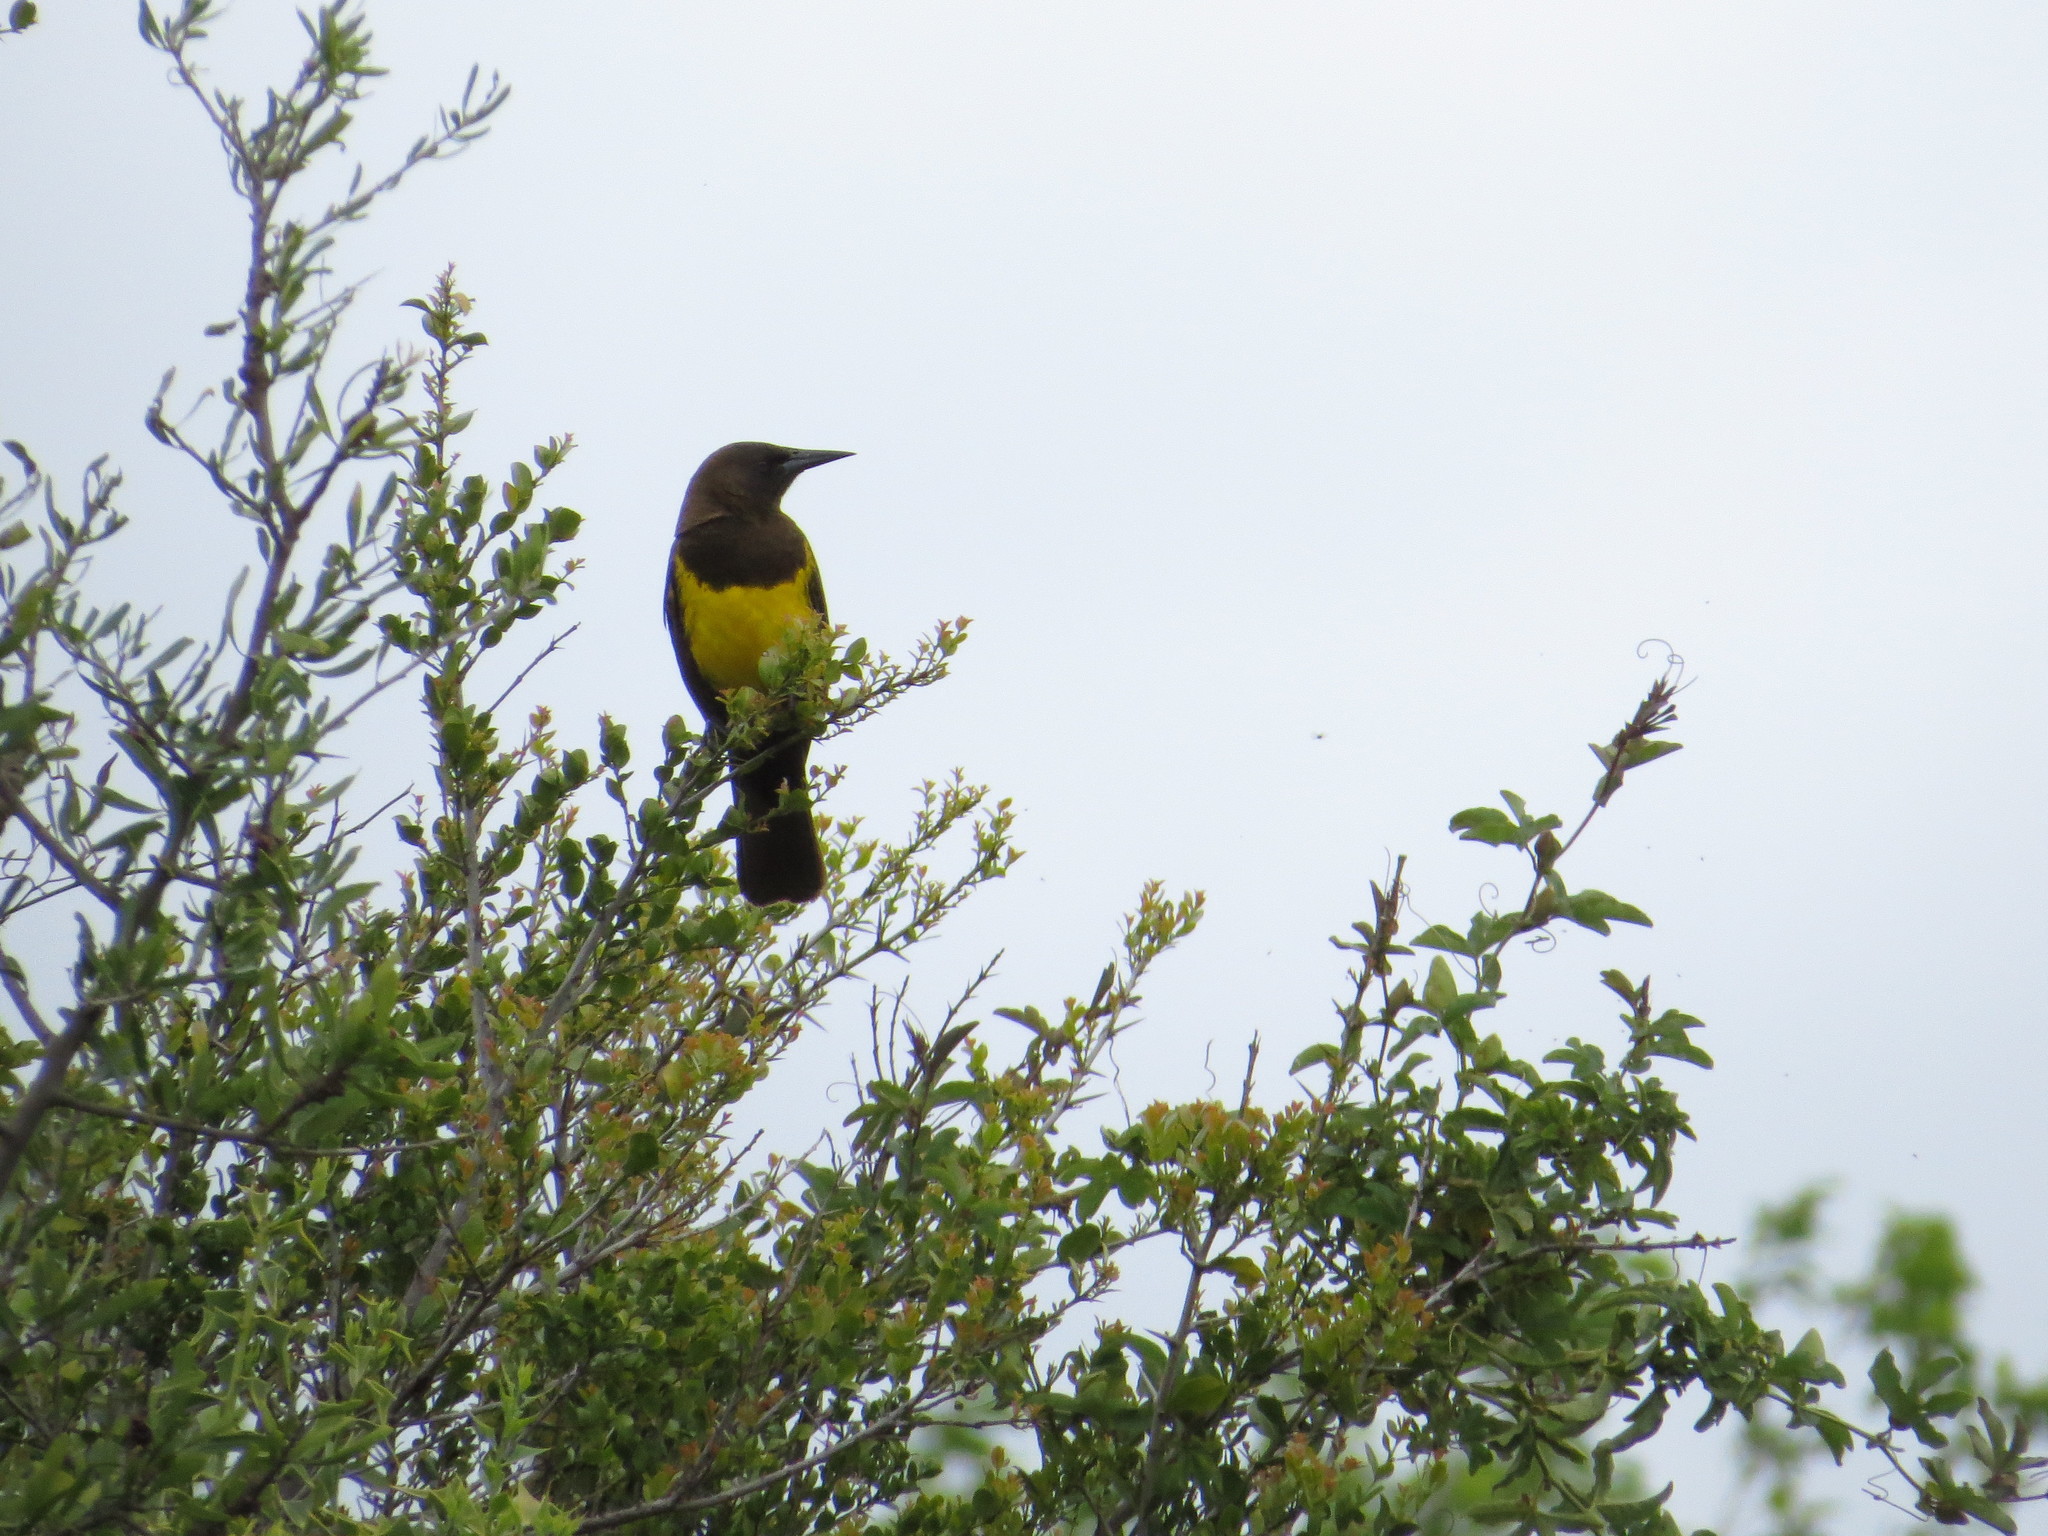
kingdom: Animalia
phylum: Chordata
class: Aves
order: Passeriformes
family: Icteridae
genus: Pseudoleistes
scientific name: Pseudoleistes virescens
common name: Brown-and-yellow marshbird
